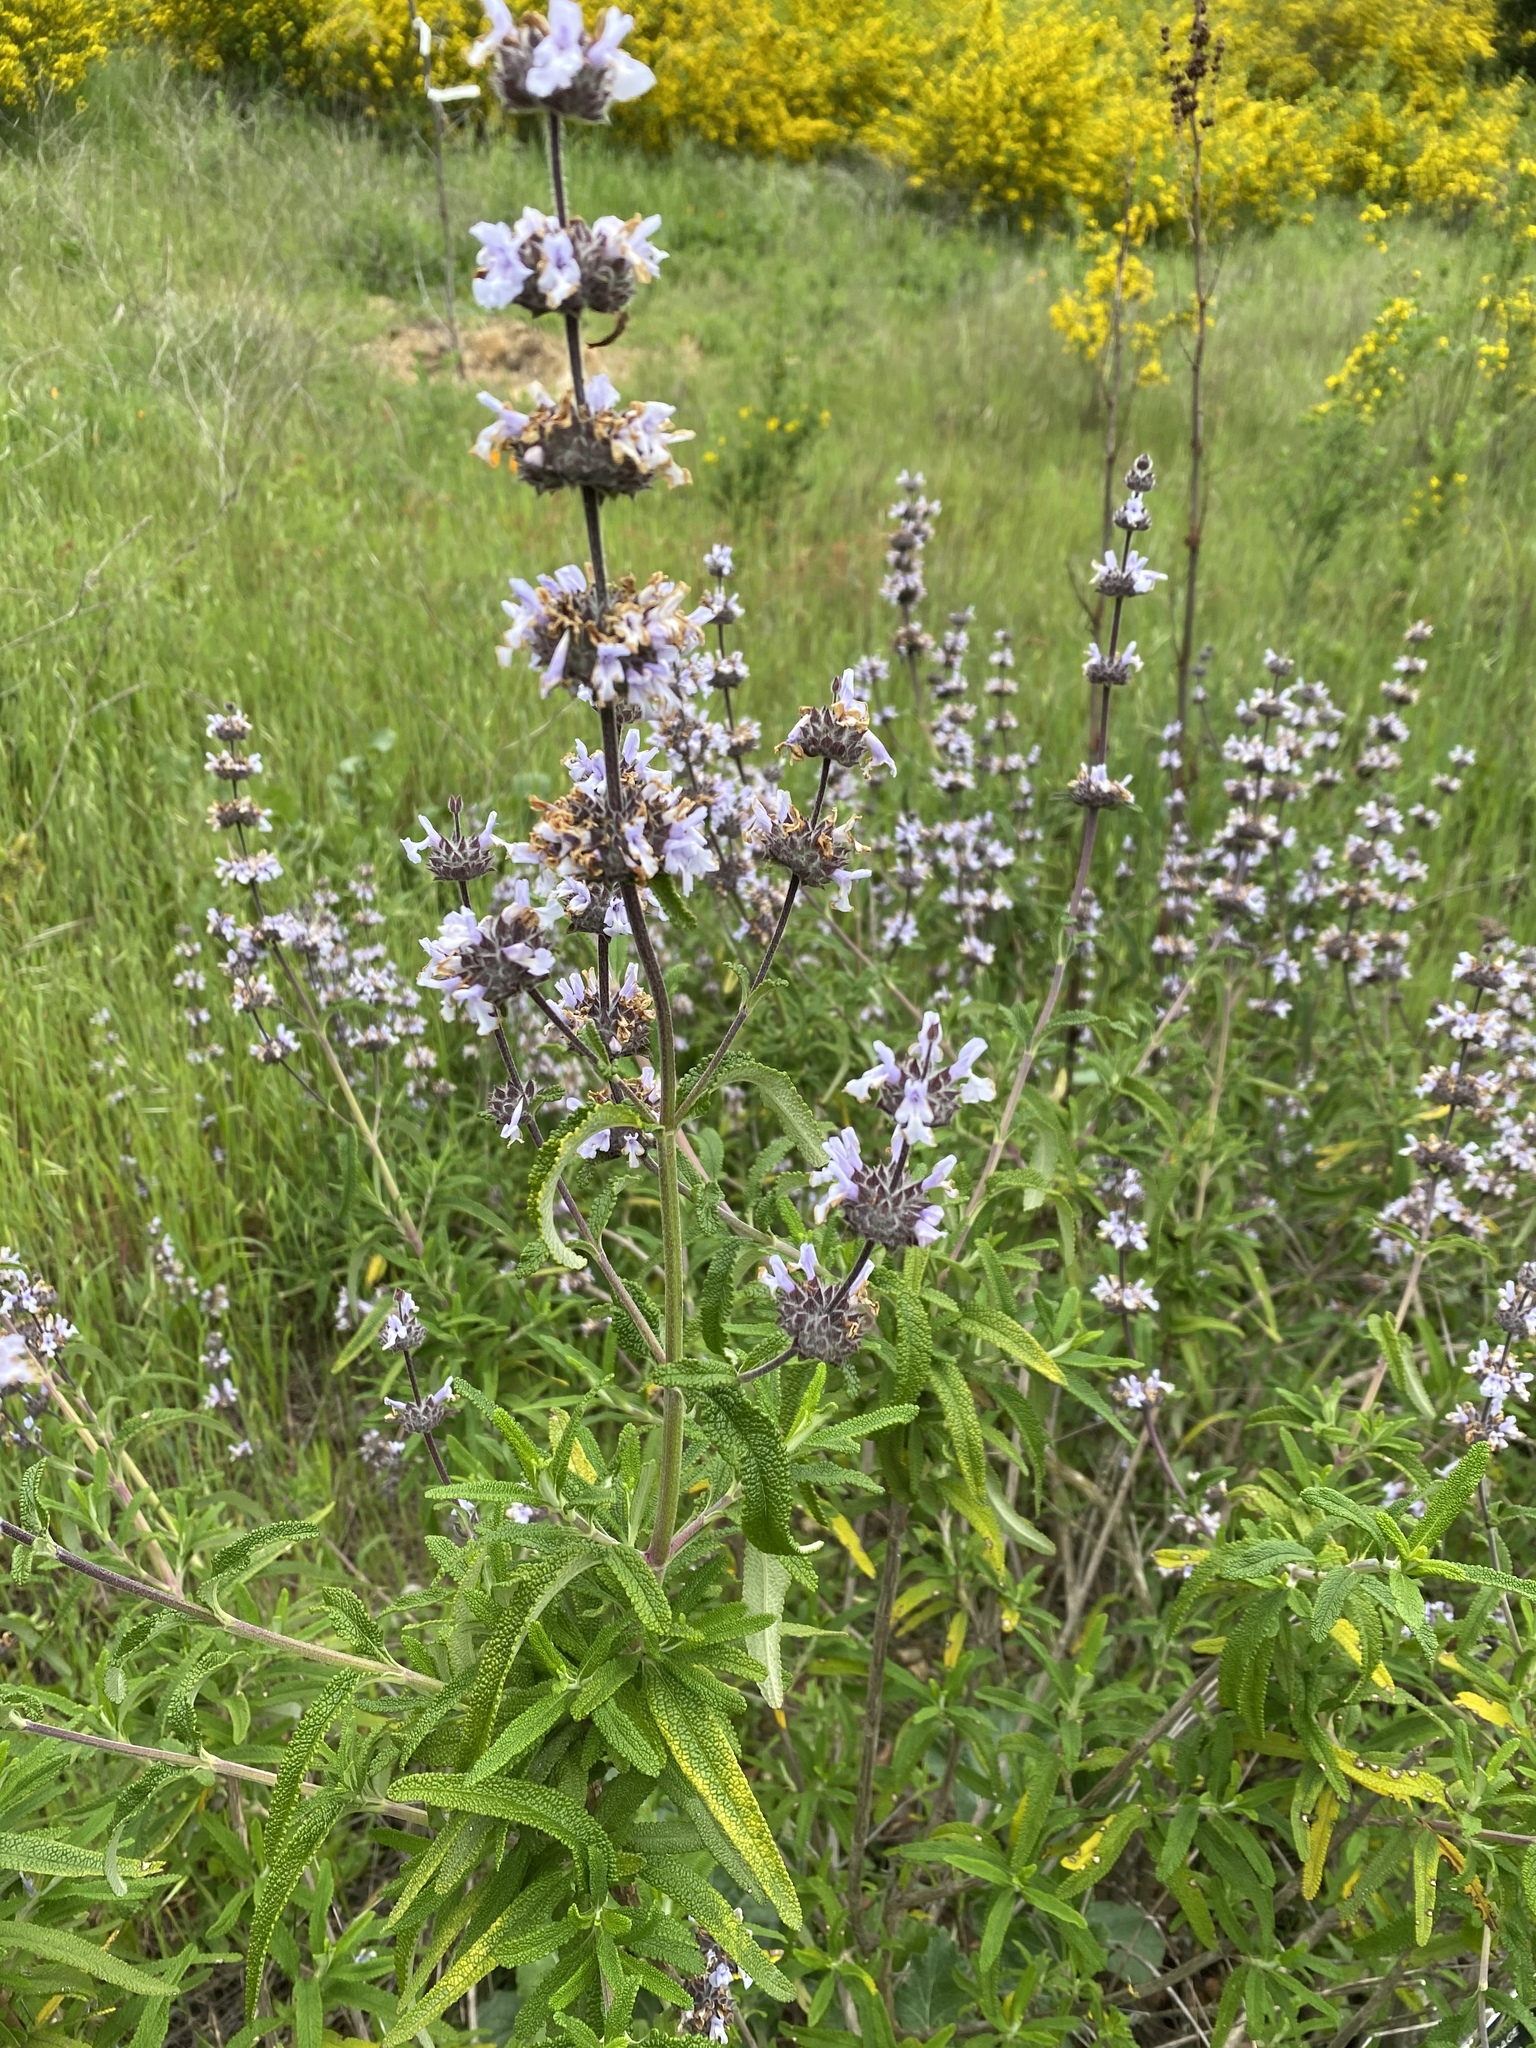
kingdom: Plantae
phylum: Tracheophyta
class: Magnoliopsida
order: Lamiales
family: Lamiaceae
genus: Salvia
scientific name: Salvia mellifera
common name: Black sage
